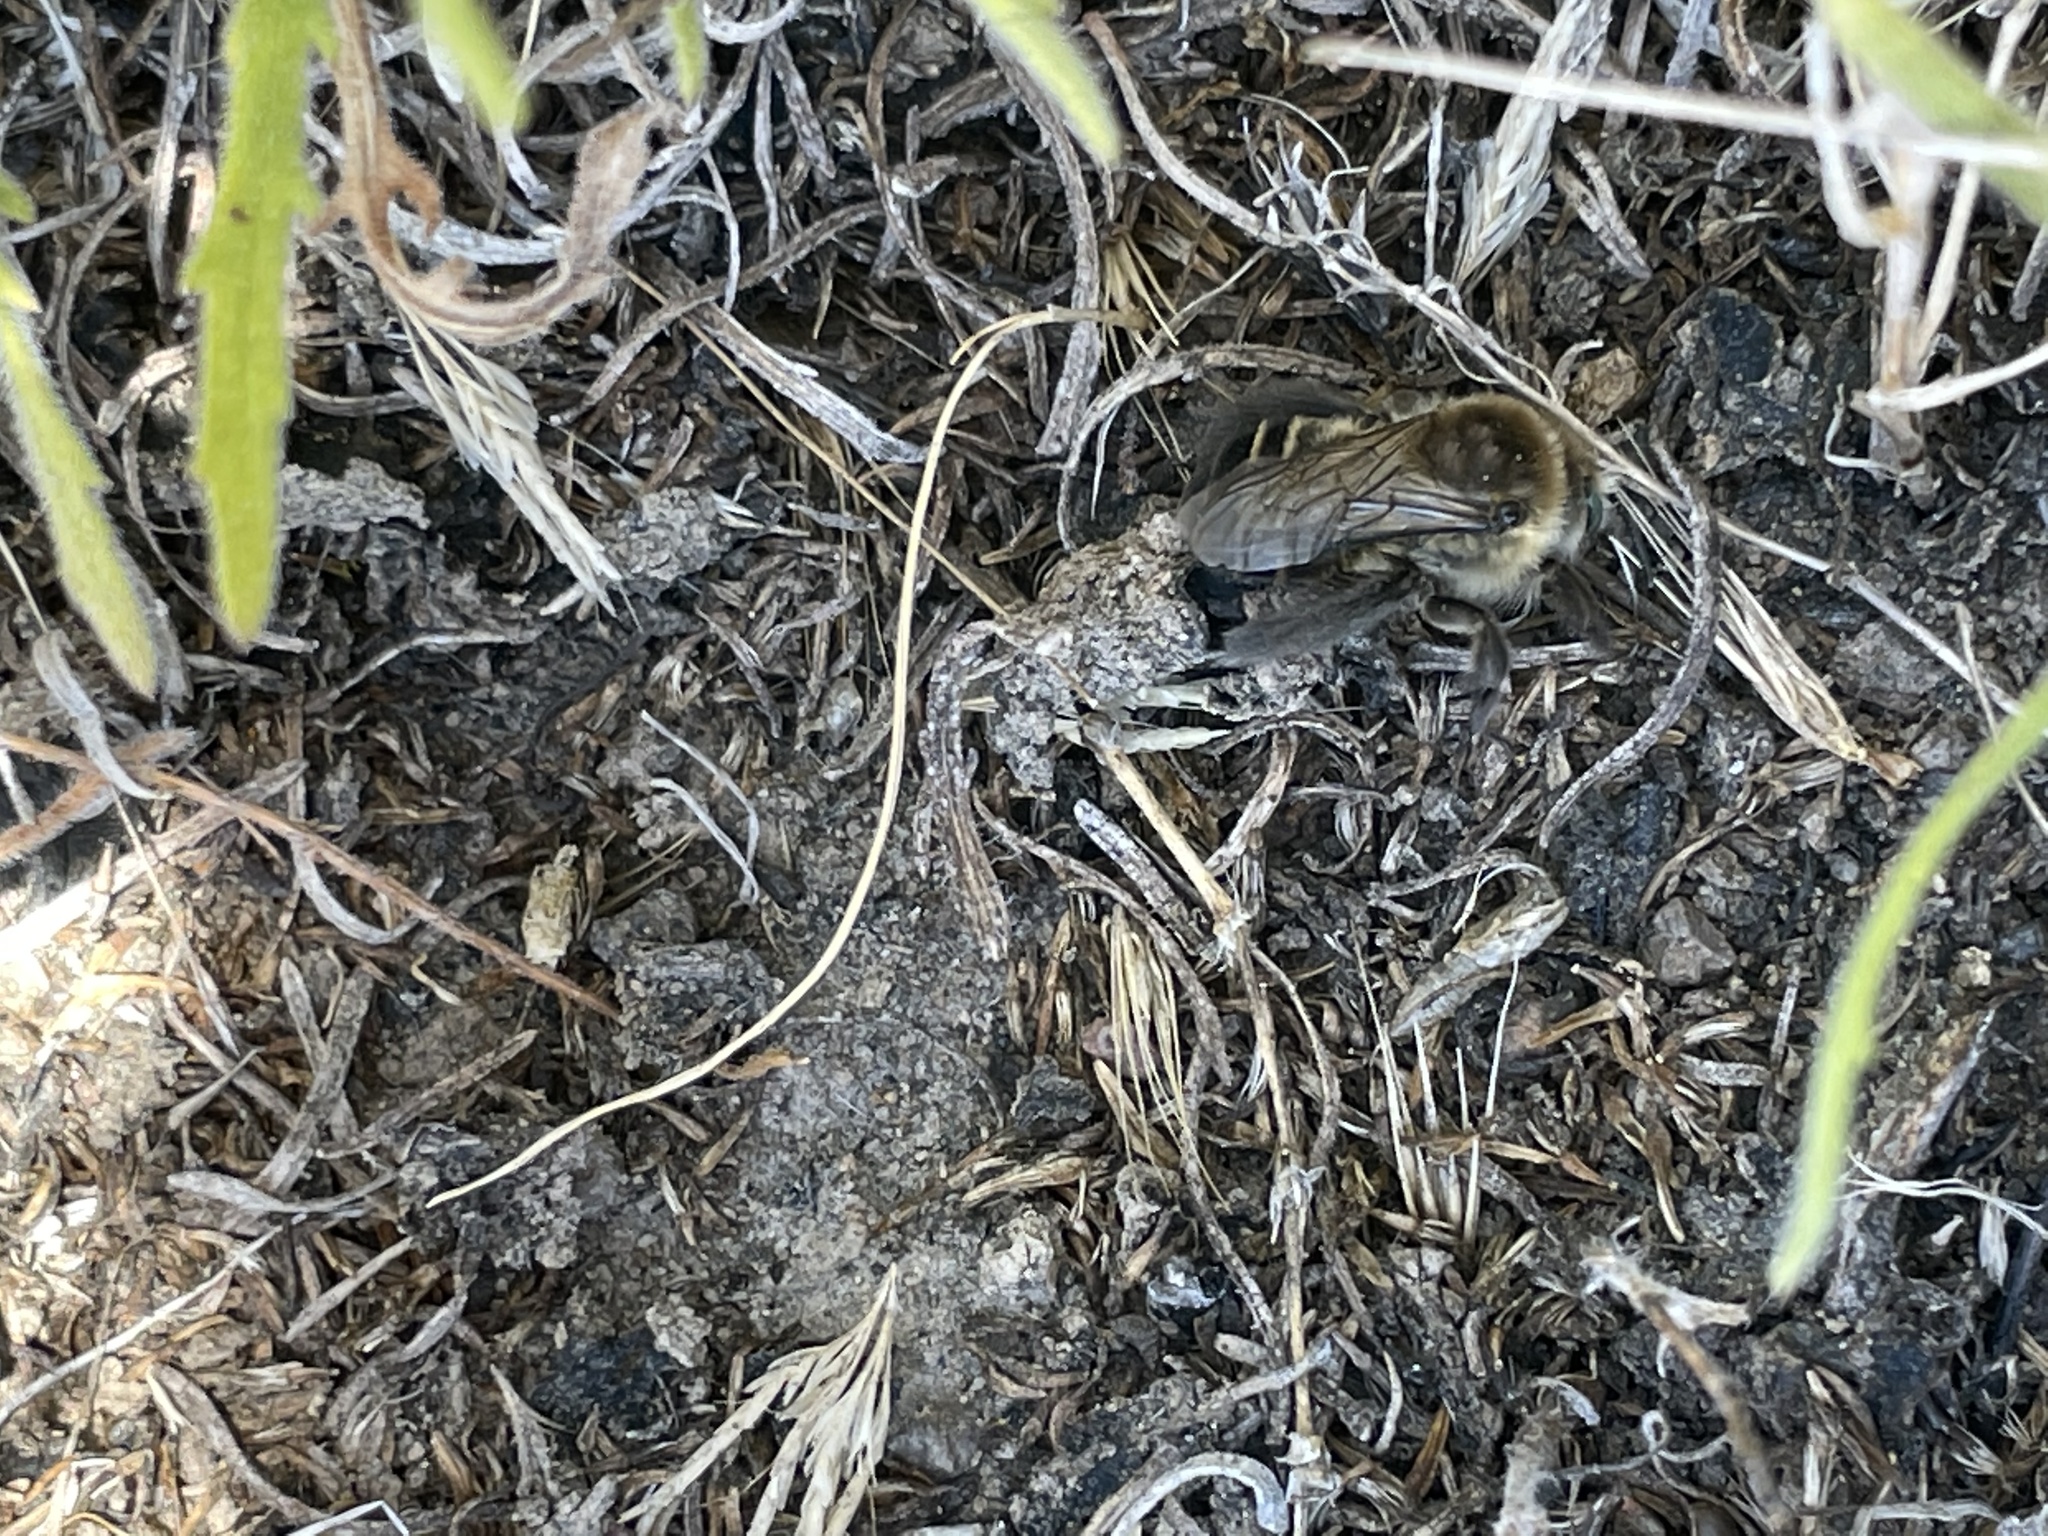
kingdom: Animalia
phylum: Arthropoda
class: Insecta
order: Hymenoptera
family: Apidae
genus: Diadasia
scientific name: Diadasia bituberculata
